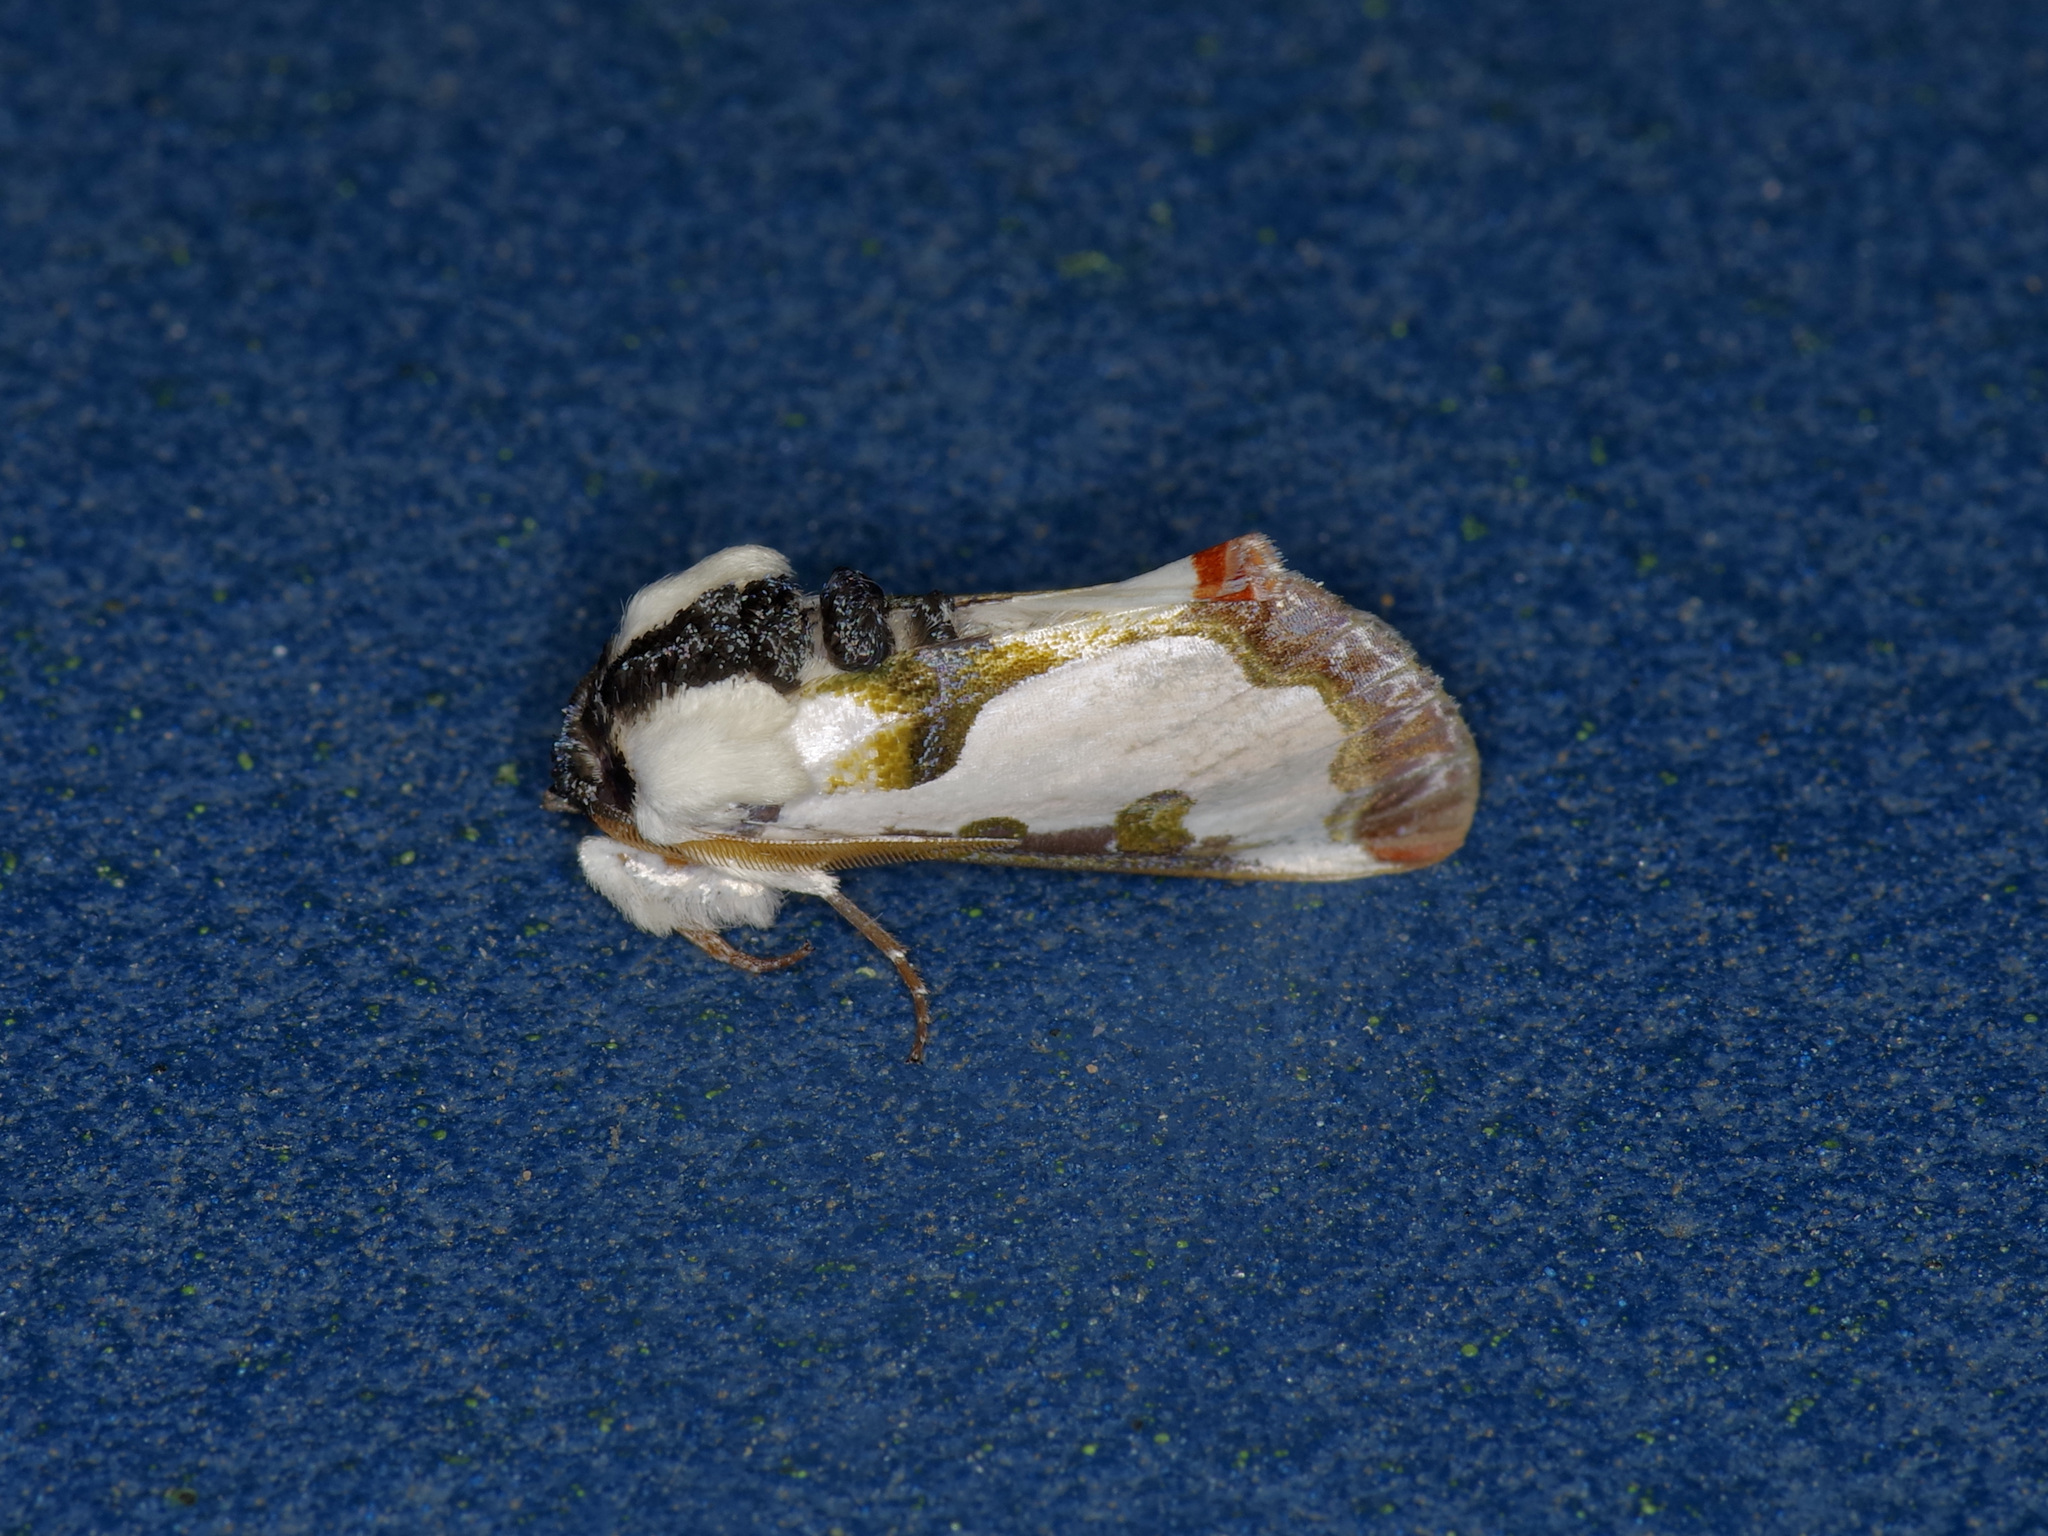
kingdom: Animalia
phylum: Arthropoda
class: Insecta
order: Lepidoptera
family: Noctuidae
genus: Xerociris
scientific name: Xerociris wilsonii
